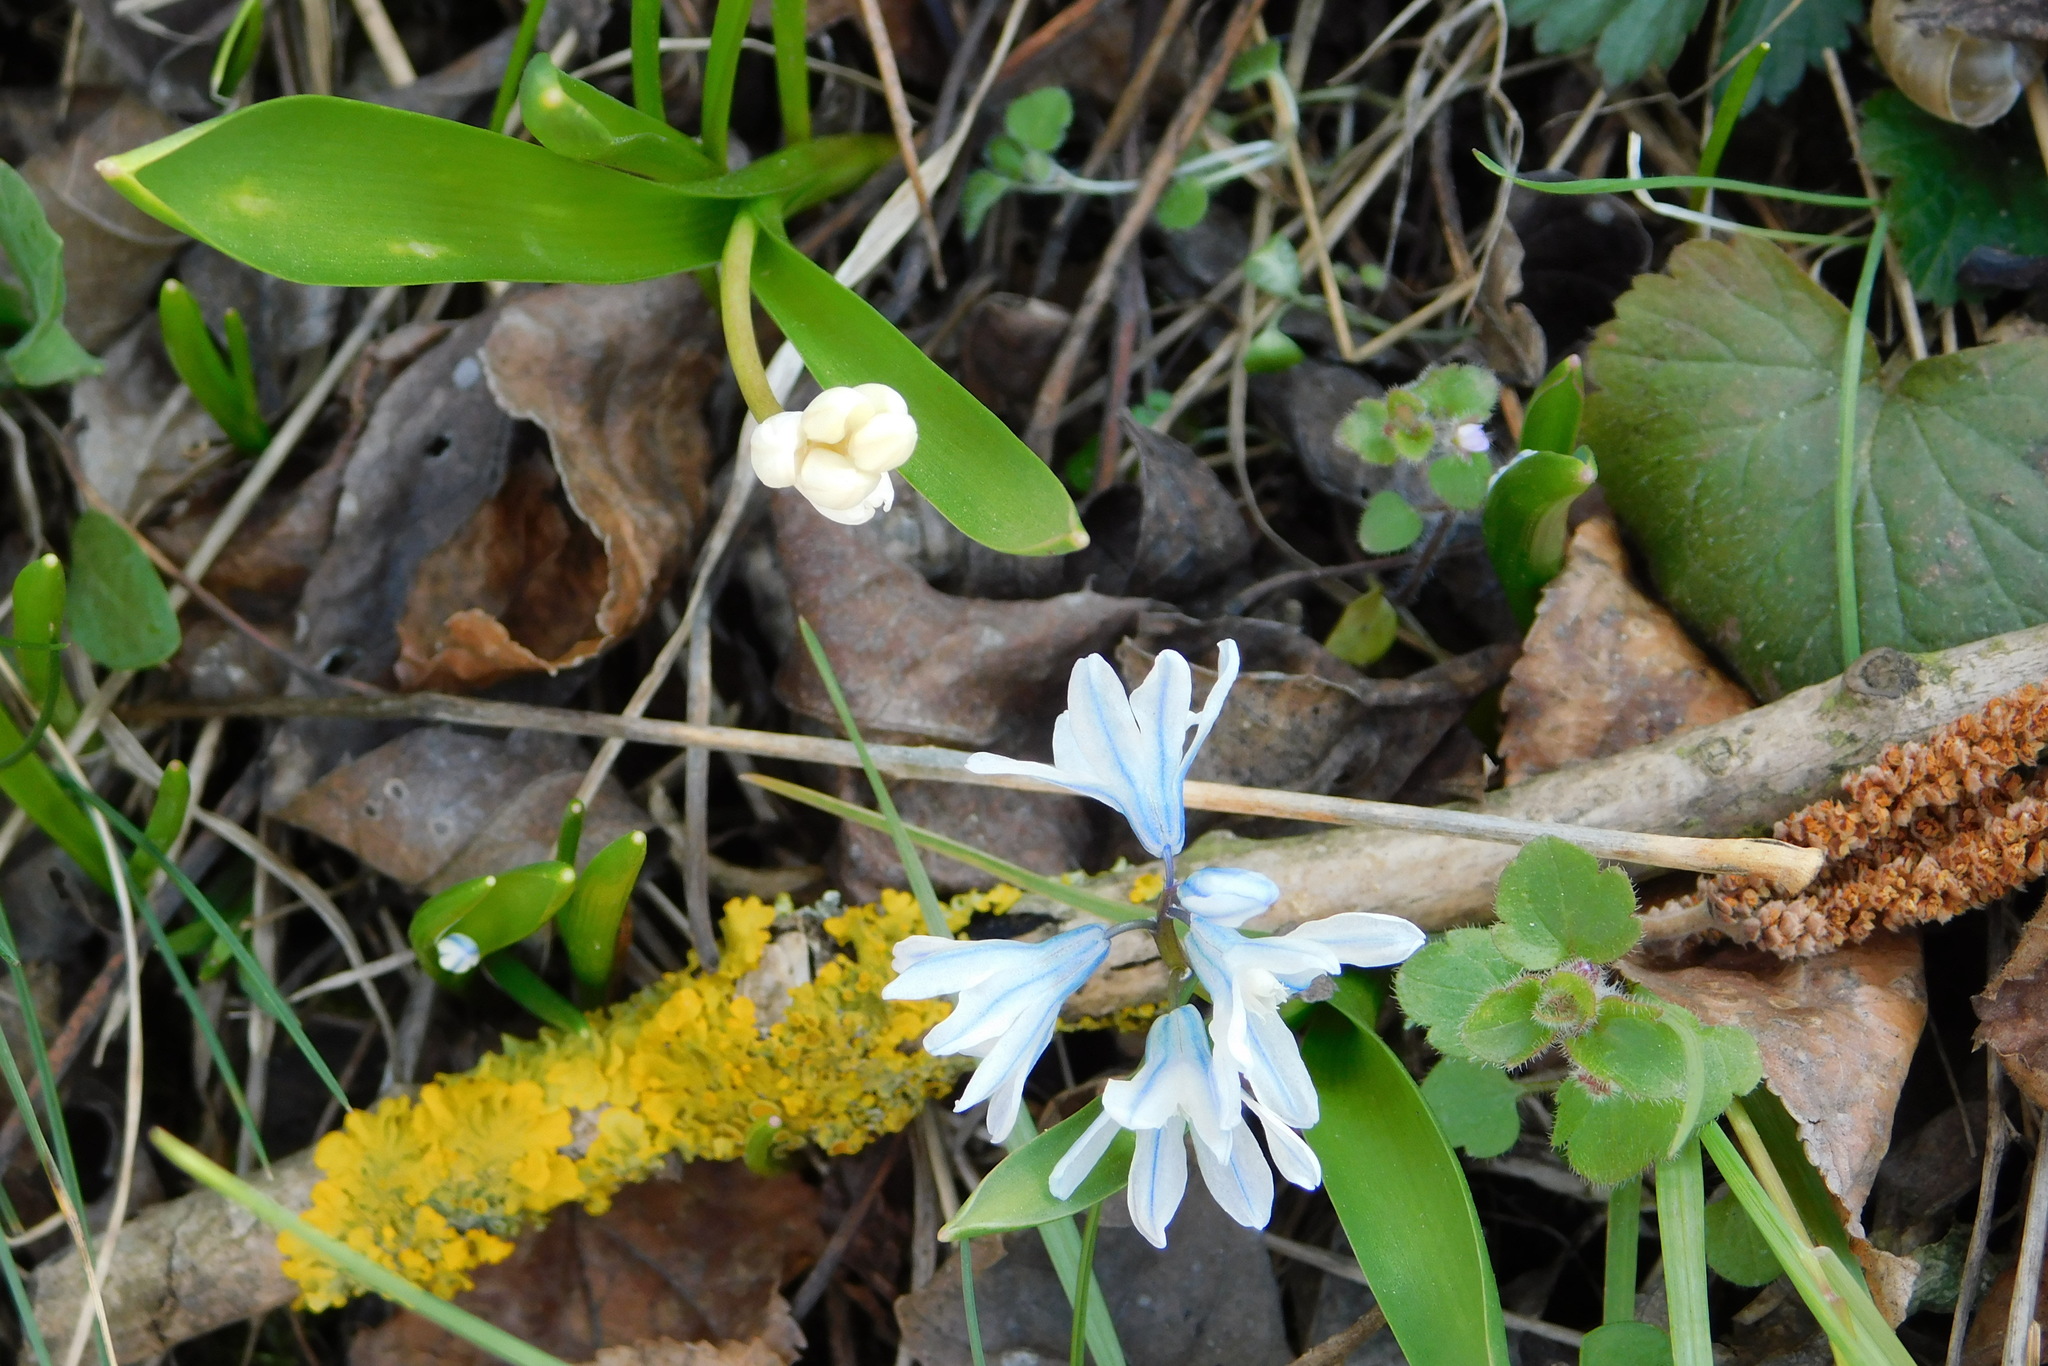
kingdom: Plantae
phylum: Tracheophyta
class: Liliopsida
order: Asparagales
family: Asparagaceae
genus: Puschkinia
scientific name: Puschkinia scilloides
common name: Striped squill
